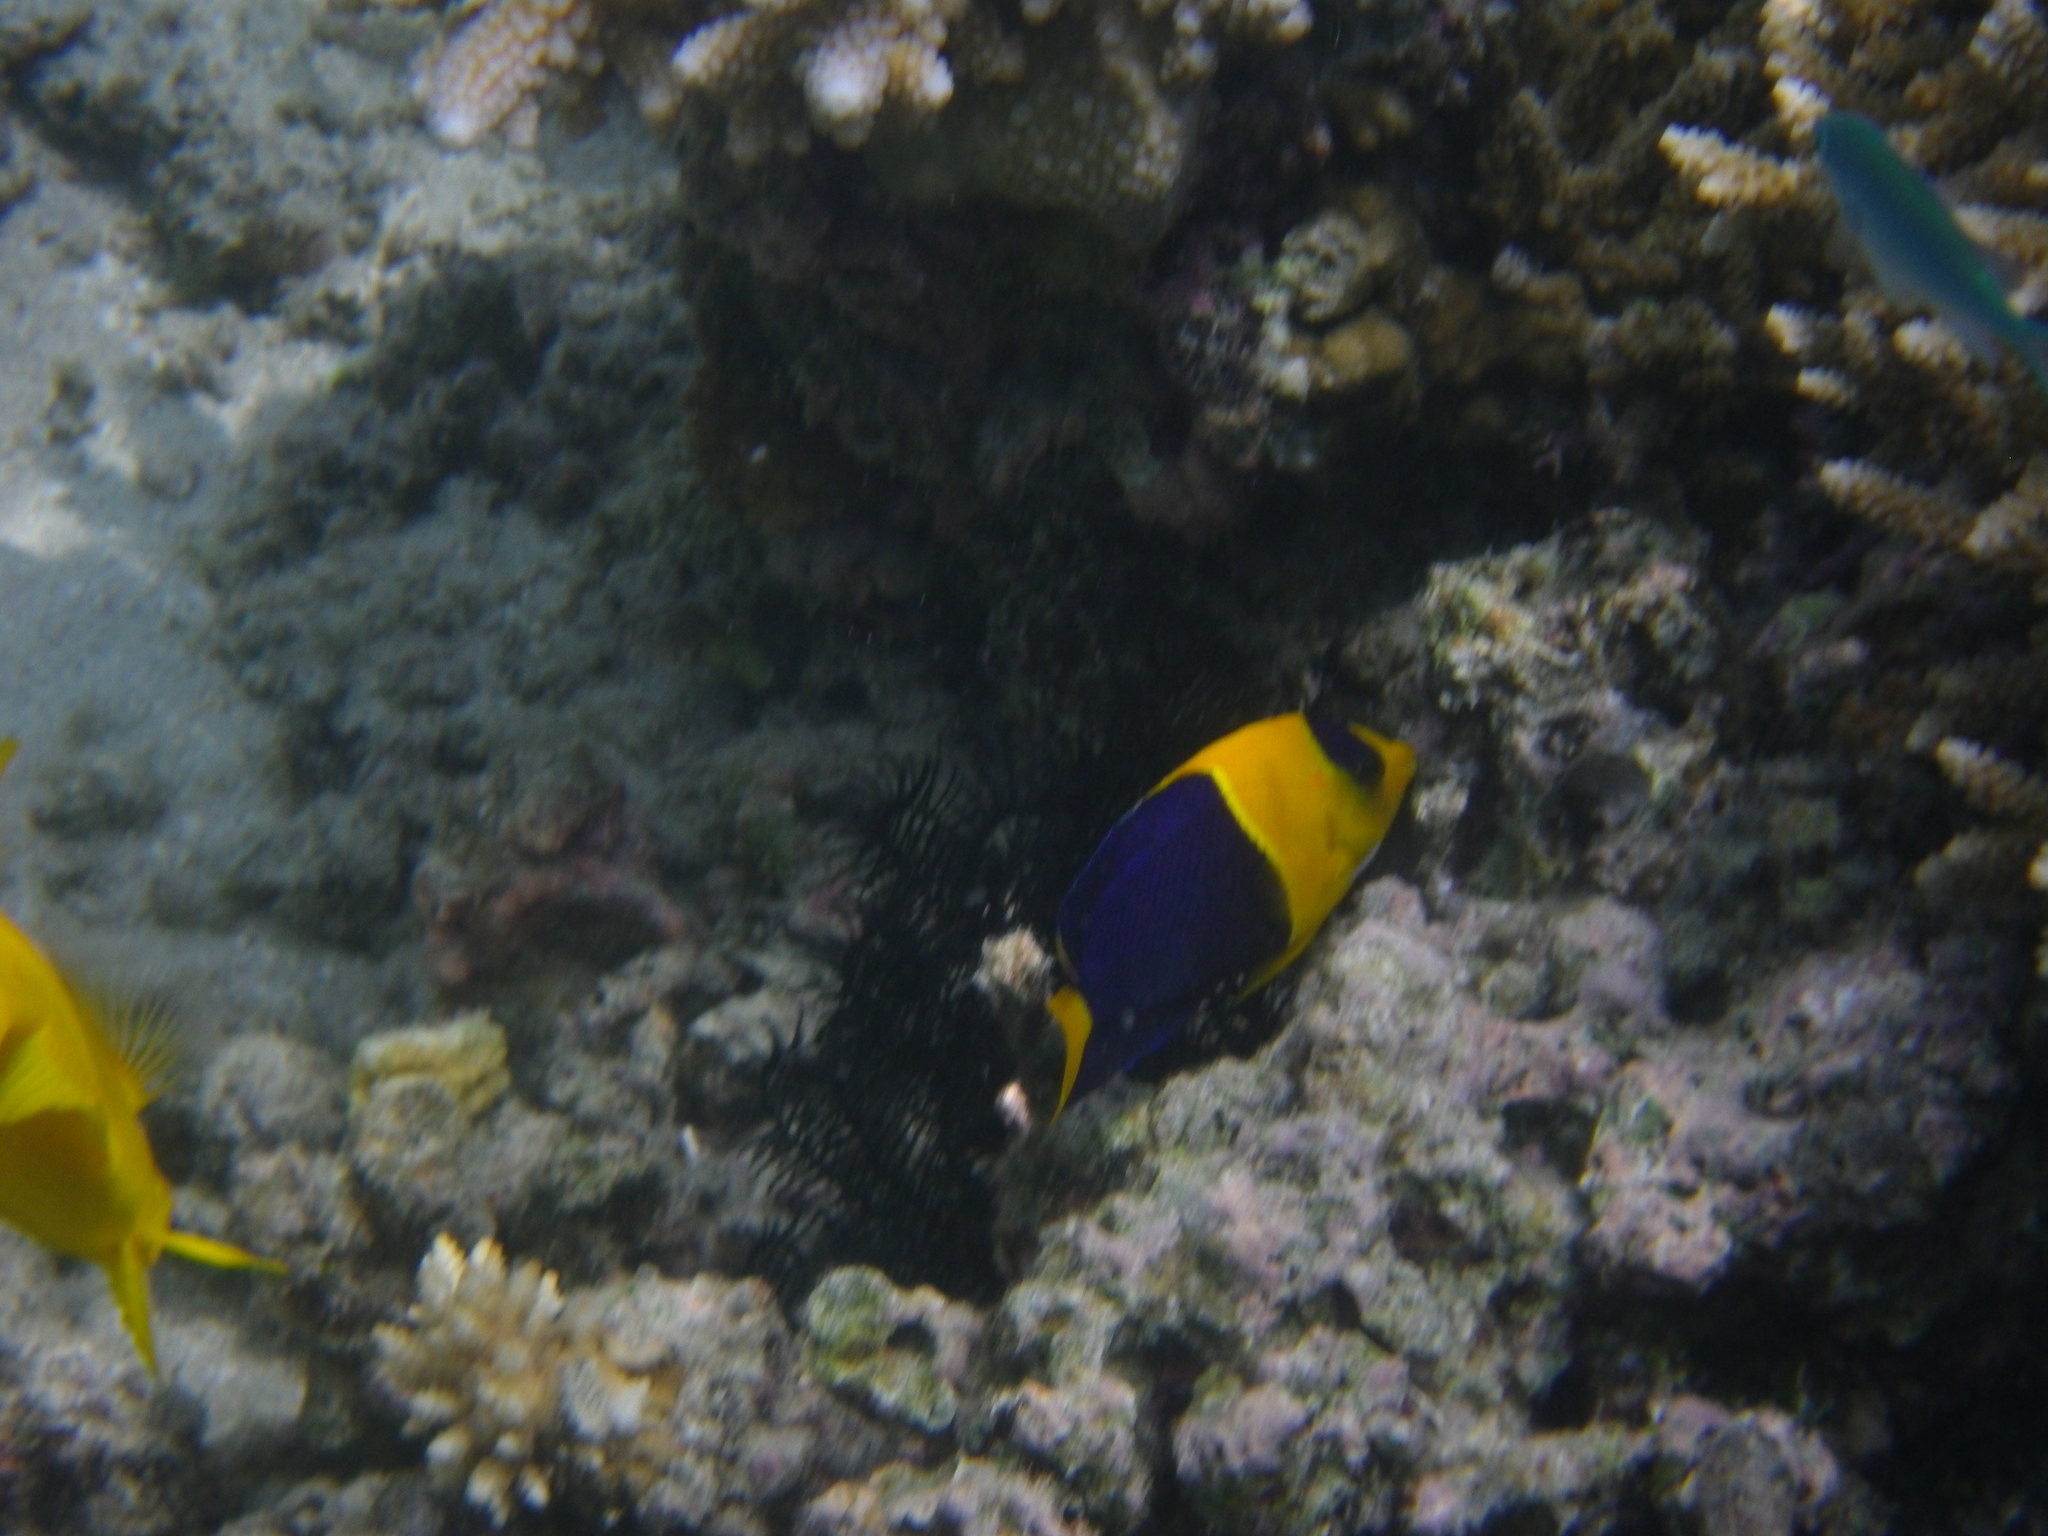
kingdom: Animalia
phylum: Chordata
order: Perciformes
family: Pomacanthidae
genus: Centropyge
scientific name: Centropyge bicolor
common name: Bicolor angelfish
